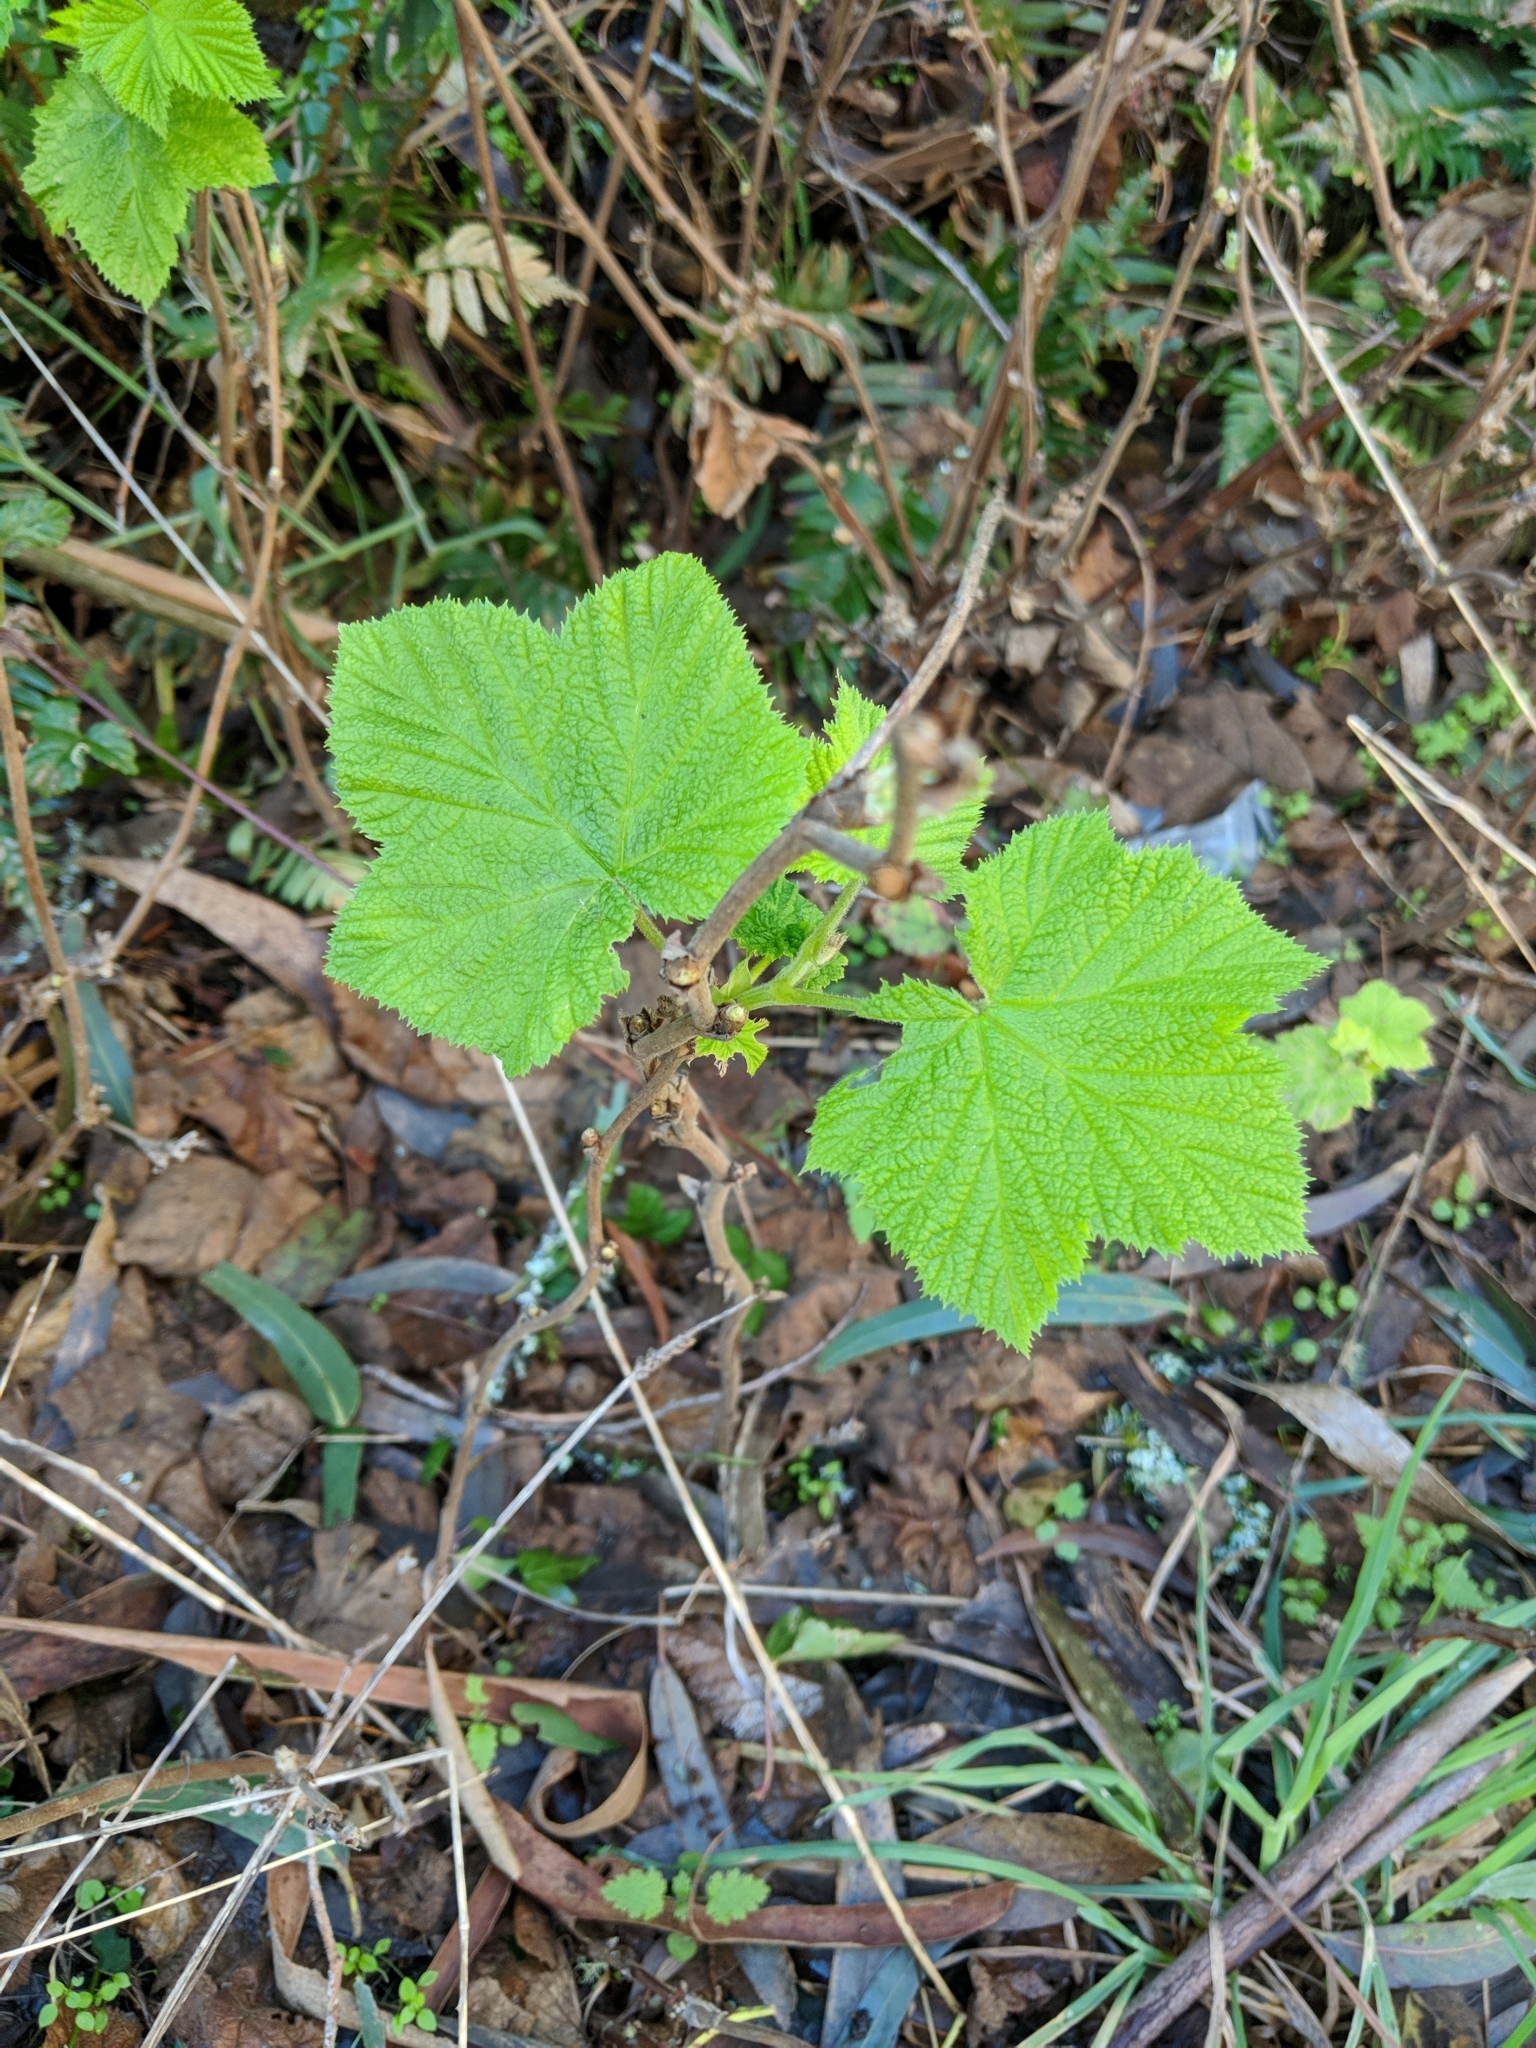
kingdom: Plantae
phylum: Tracheophyta
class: Magnoliopsida
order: Rosales
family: Rosaceae
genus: Rubus
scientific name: Rubus parviflorus
